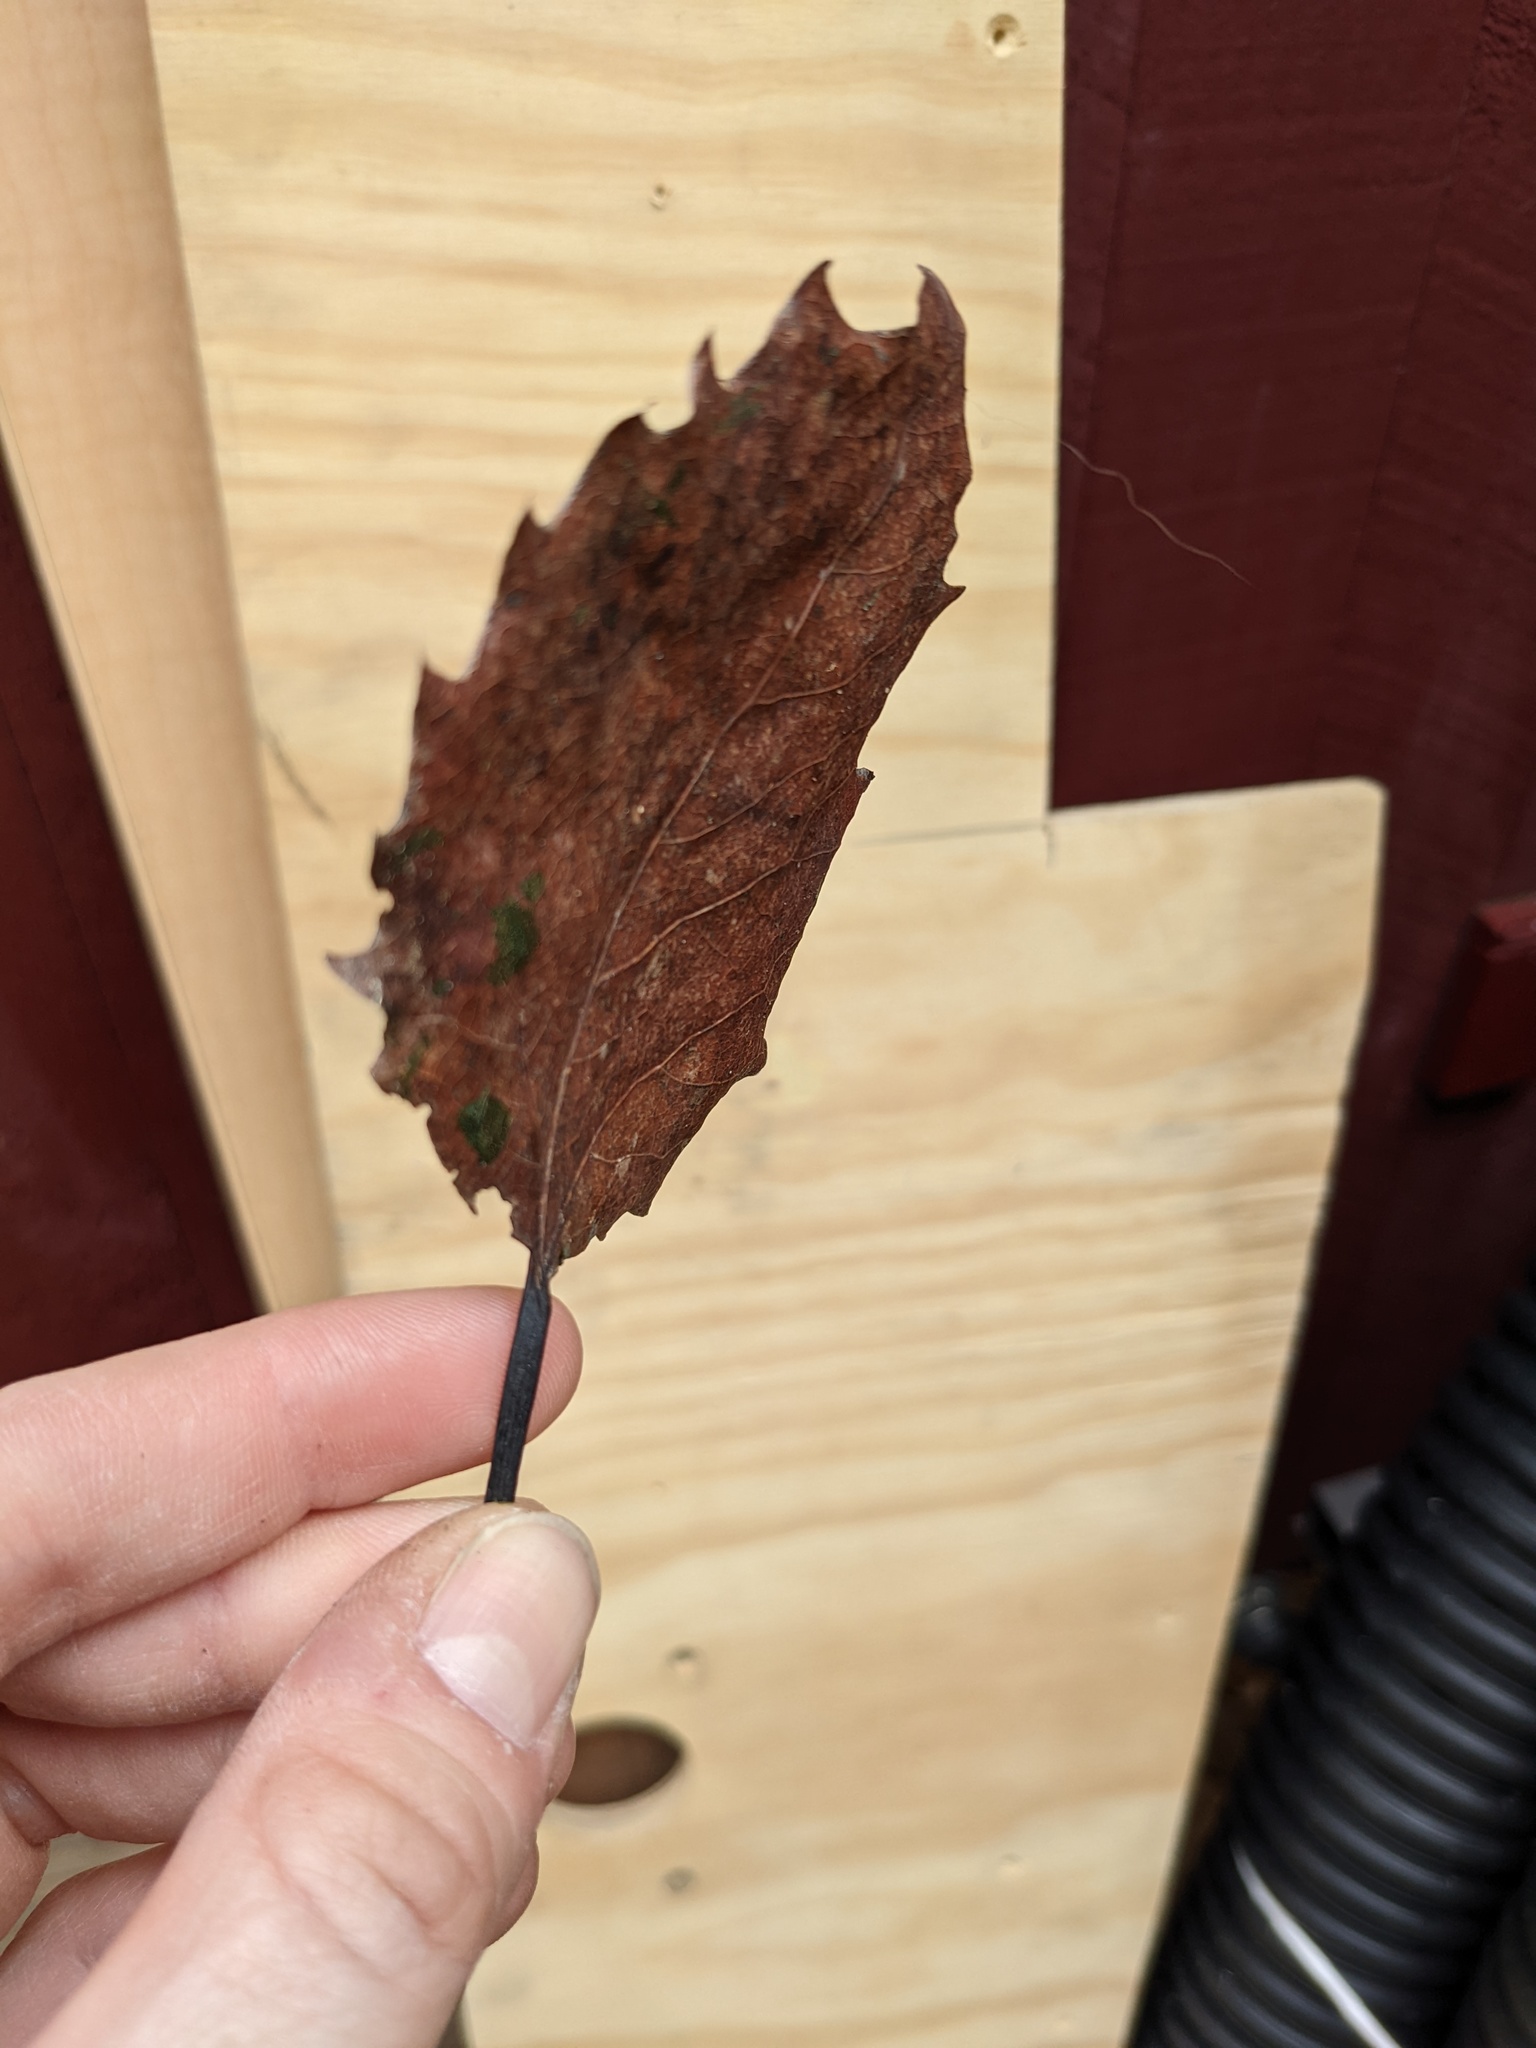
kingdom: Plantae
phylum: Tracheophyta
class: Magnoliopsida
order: Malpighiales
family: Salicaceae
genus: Populus
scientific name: Populus grandidentata
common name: Bigtooth aspen
